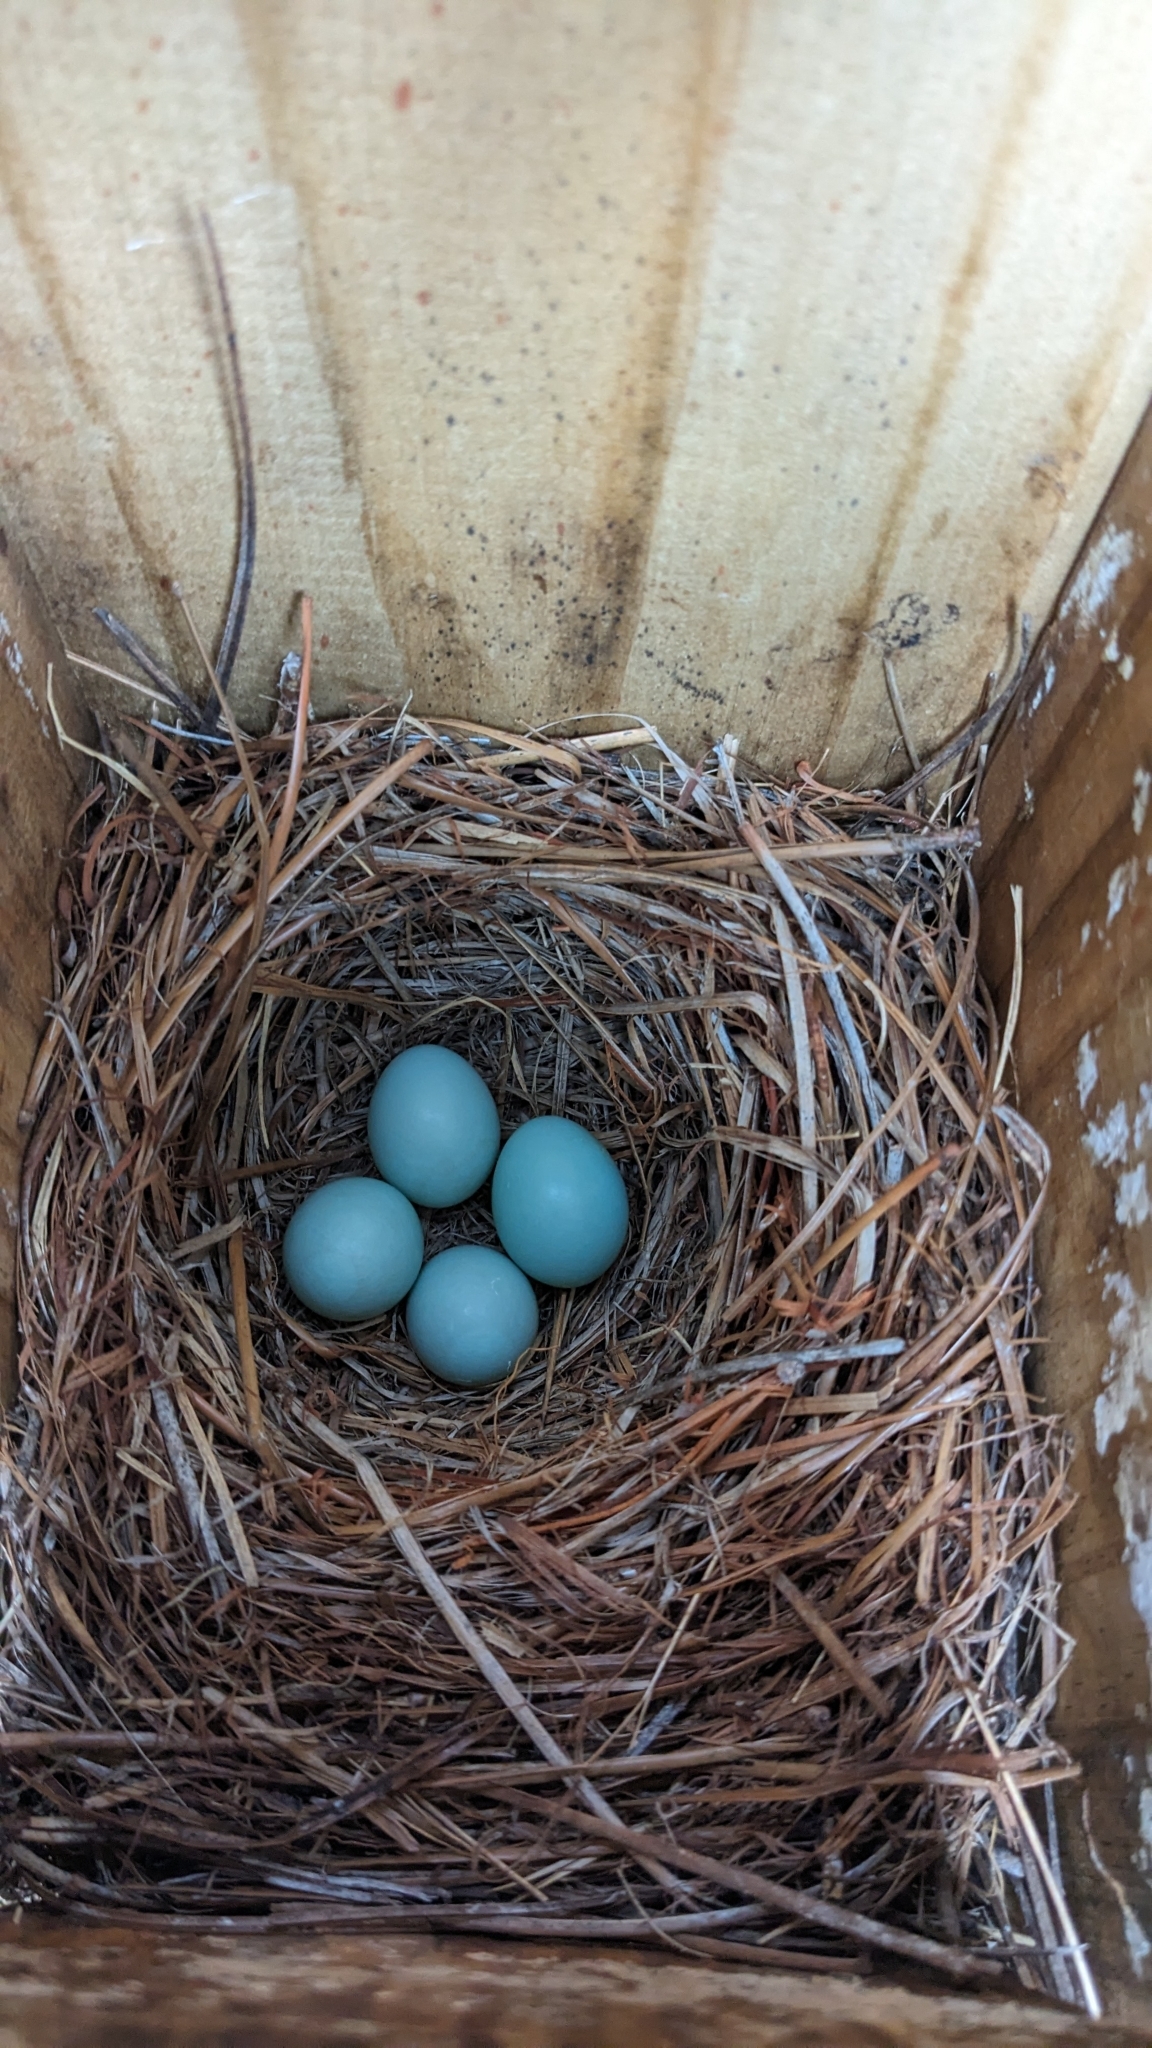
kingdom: Animalia
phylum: Chordata
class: Aves
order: Passeriformes
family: Turdidae
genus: Sialia
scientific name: Sialia sialis
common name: Eastern bluebird
